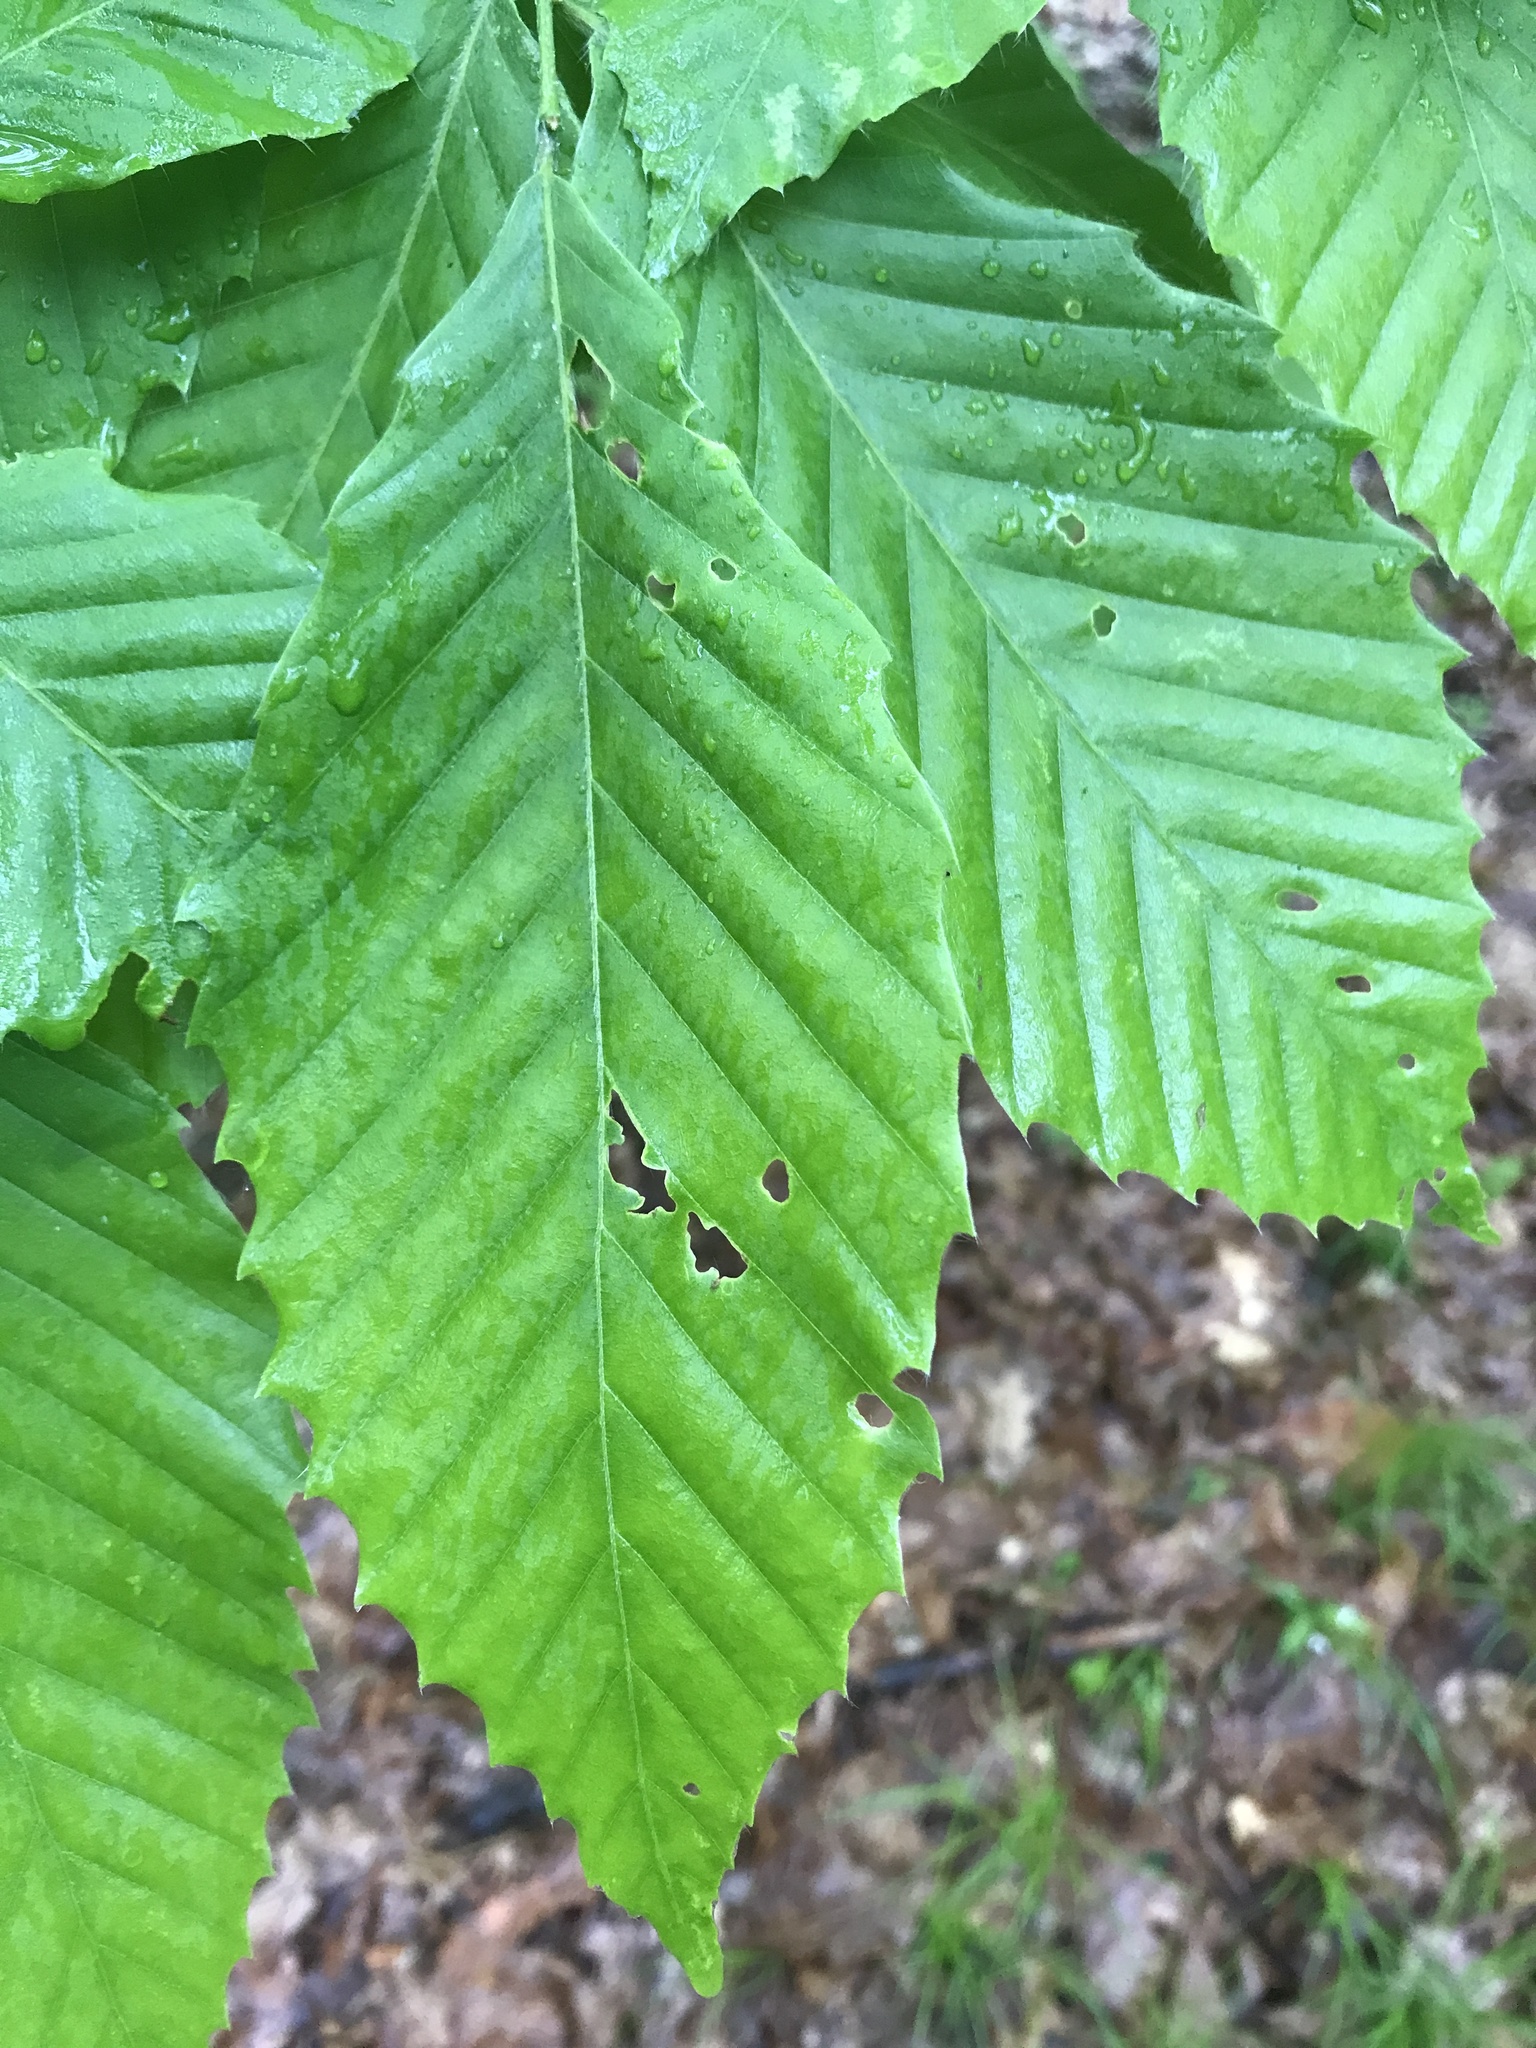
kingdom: Plantae
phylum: Tracheophyta
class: Magnoliopsida
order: Fagales
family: Fagaceae
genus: Fagus
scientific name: Fagus grandifolia
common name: American beech
